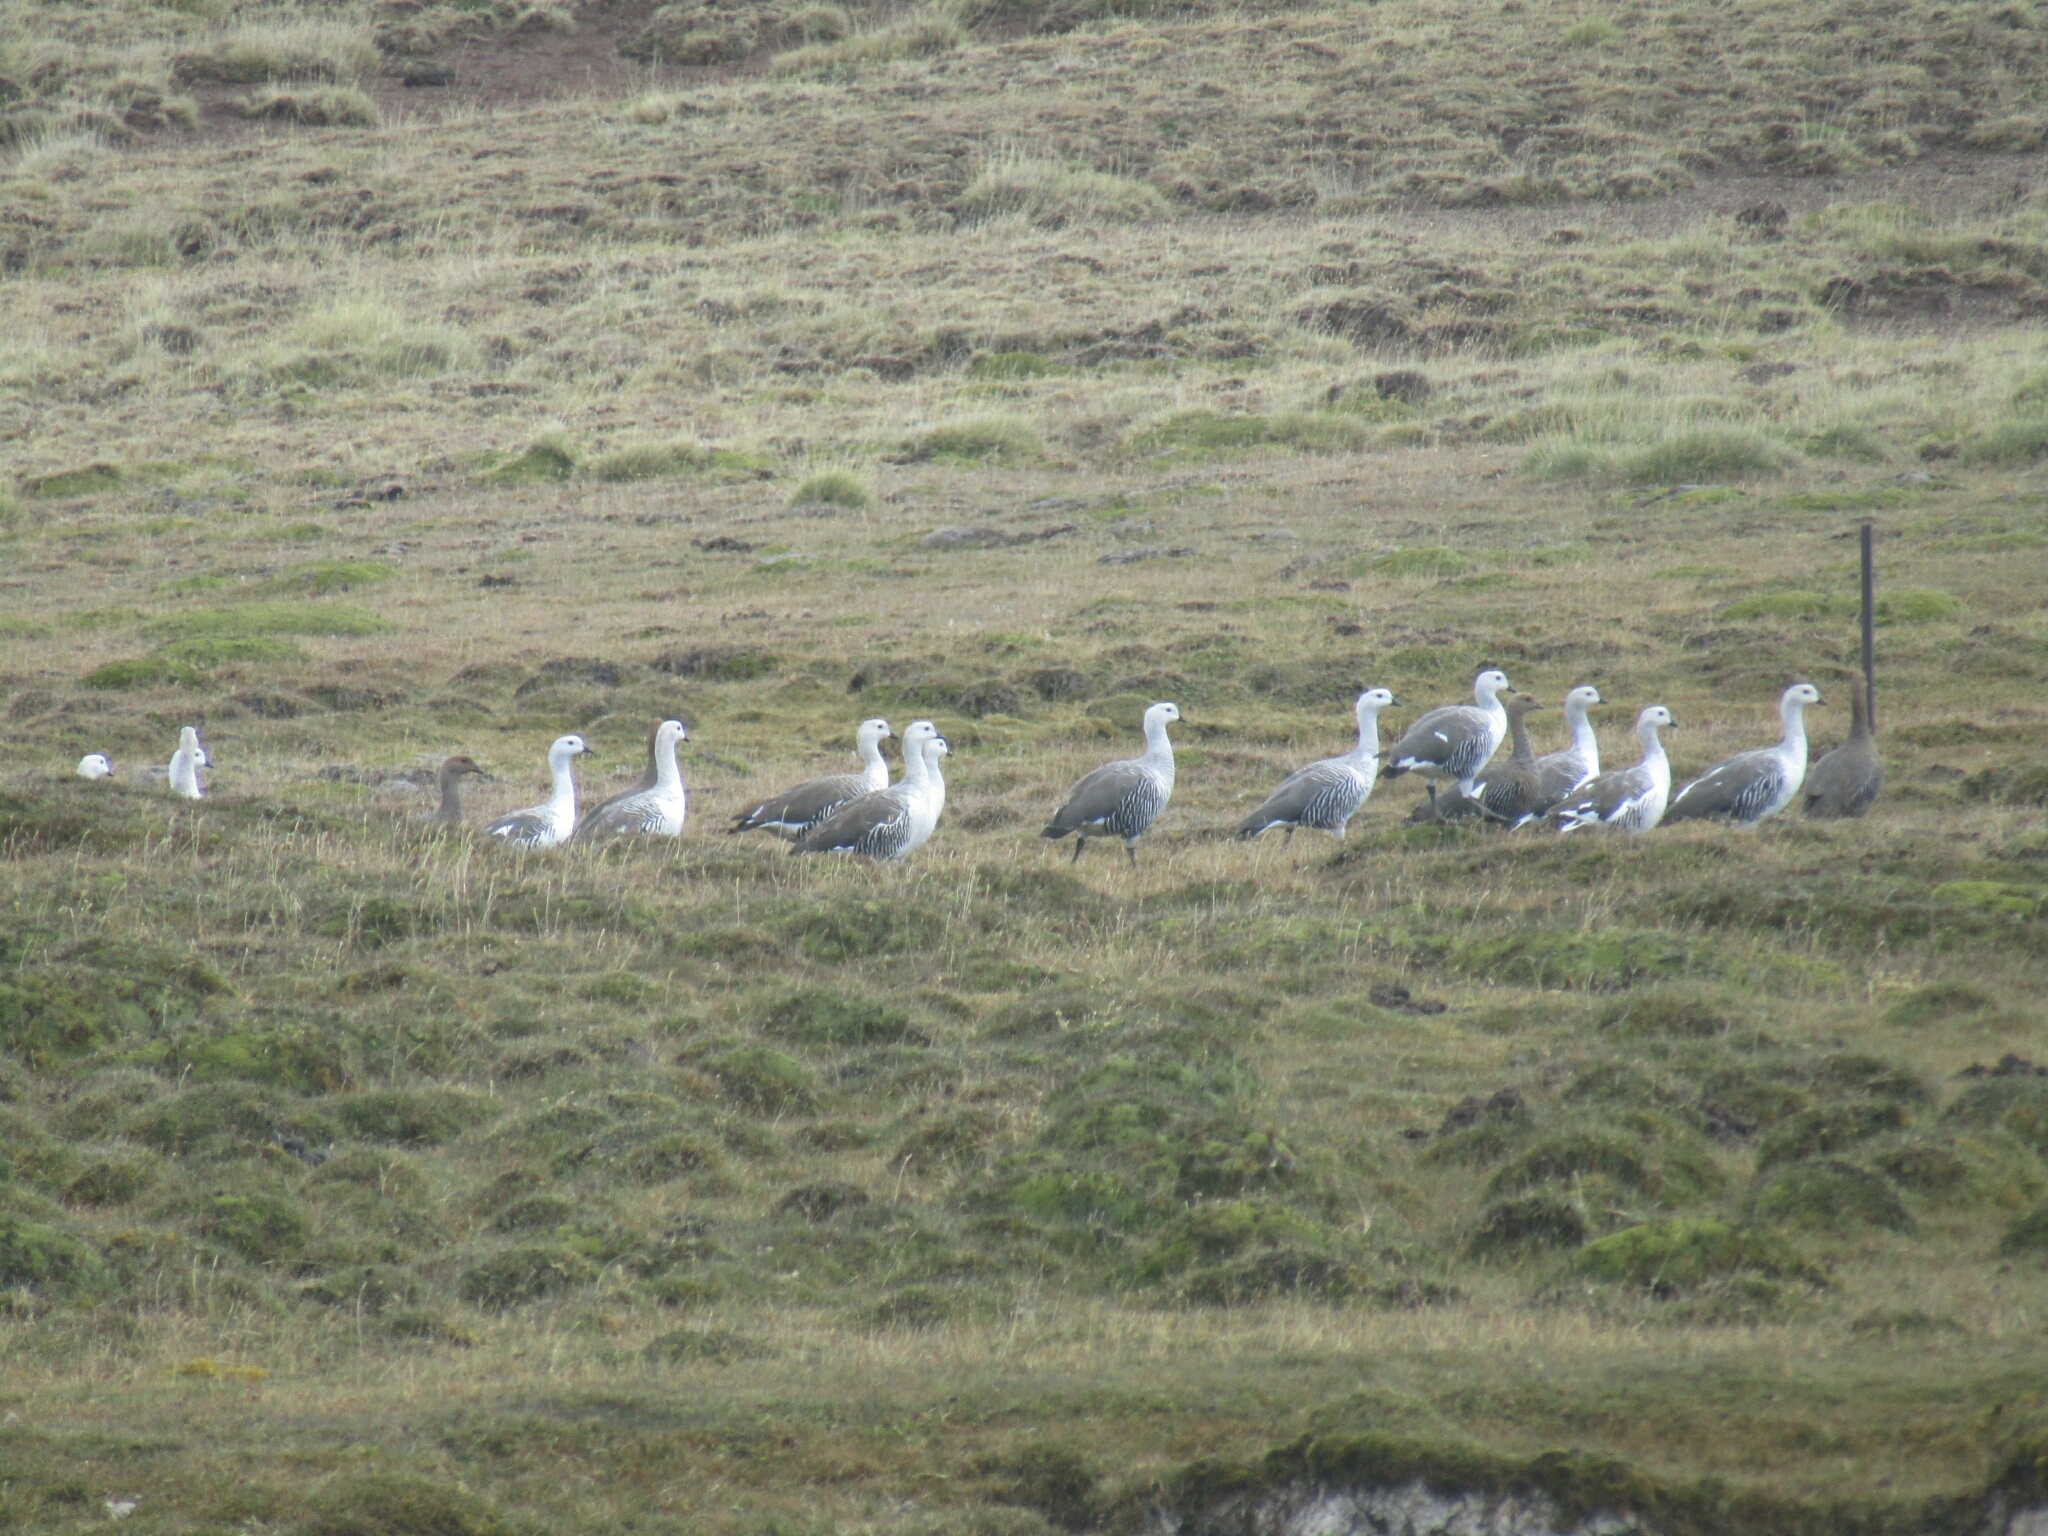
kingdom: Animalia
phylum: Chordata
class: Aves
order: Anseriformes
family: Anatidae
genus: Chloephaga
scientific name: Chloephaga picta
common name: Upland goose
